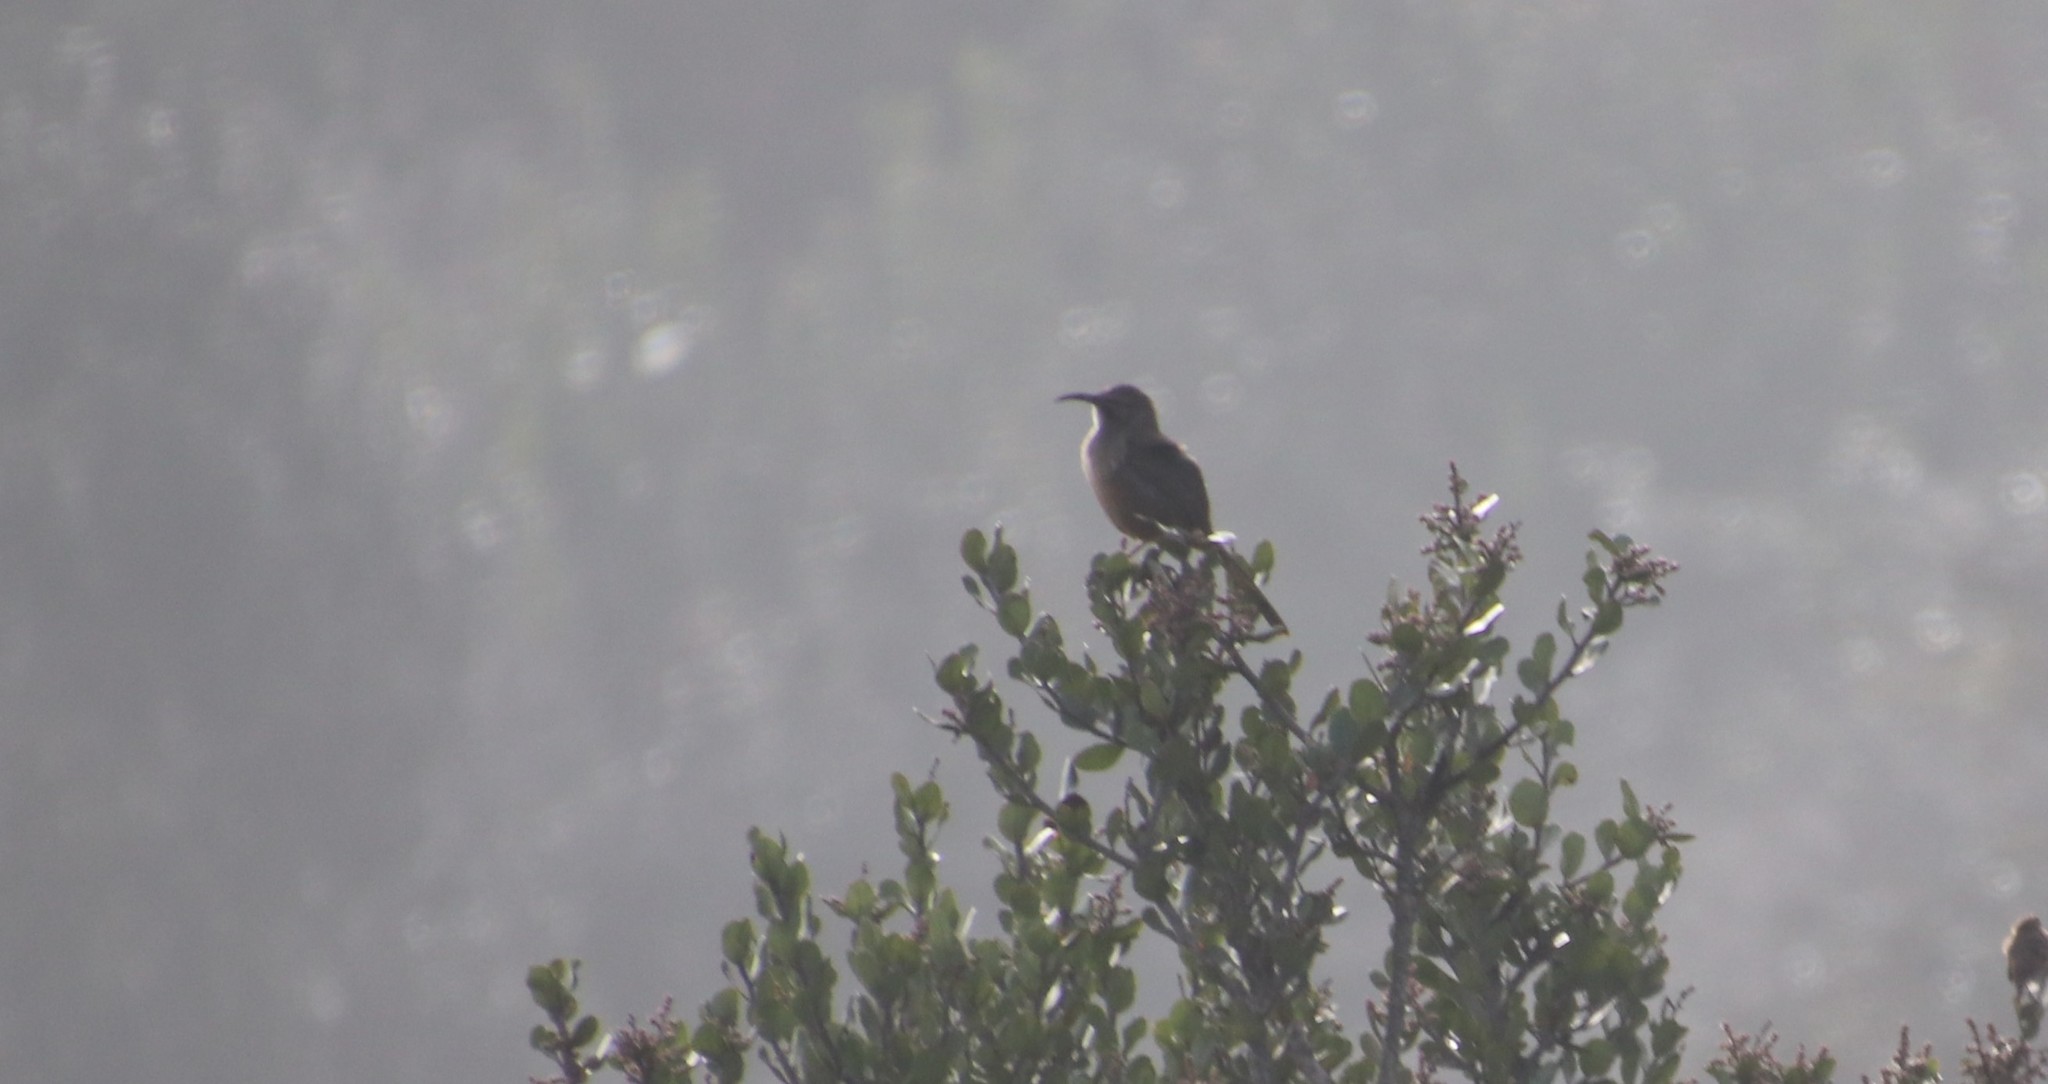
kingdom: Animalia
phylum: Chordata
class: Aves
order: Passeriformes
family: Mimidae
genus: Toxostoma
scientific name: Toxostoma redivivum
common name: California thrasher
